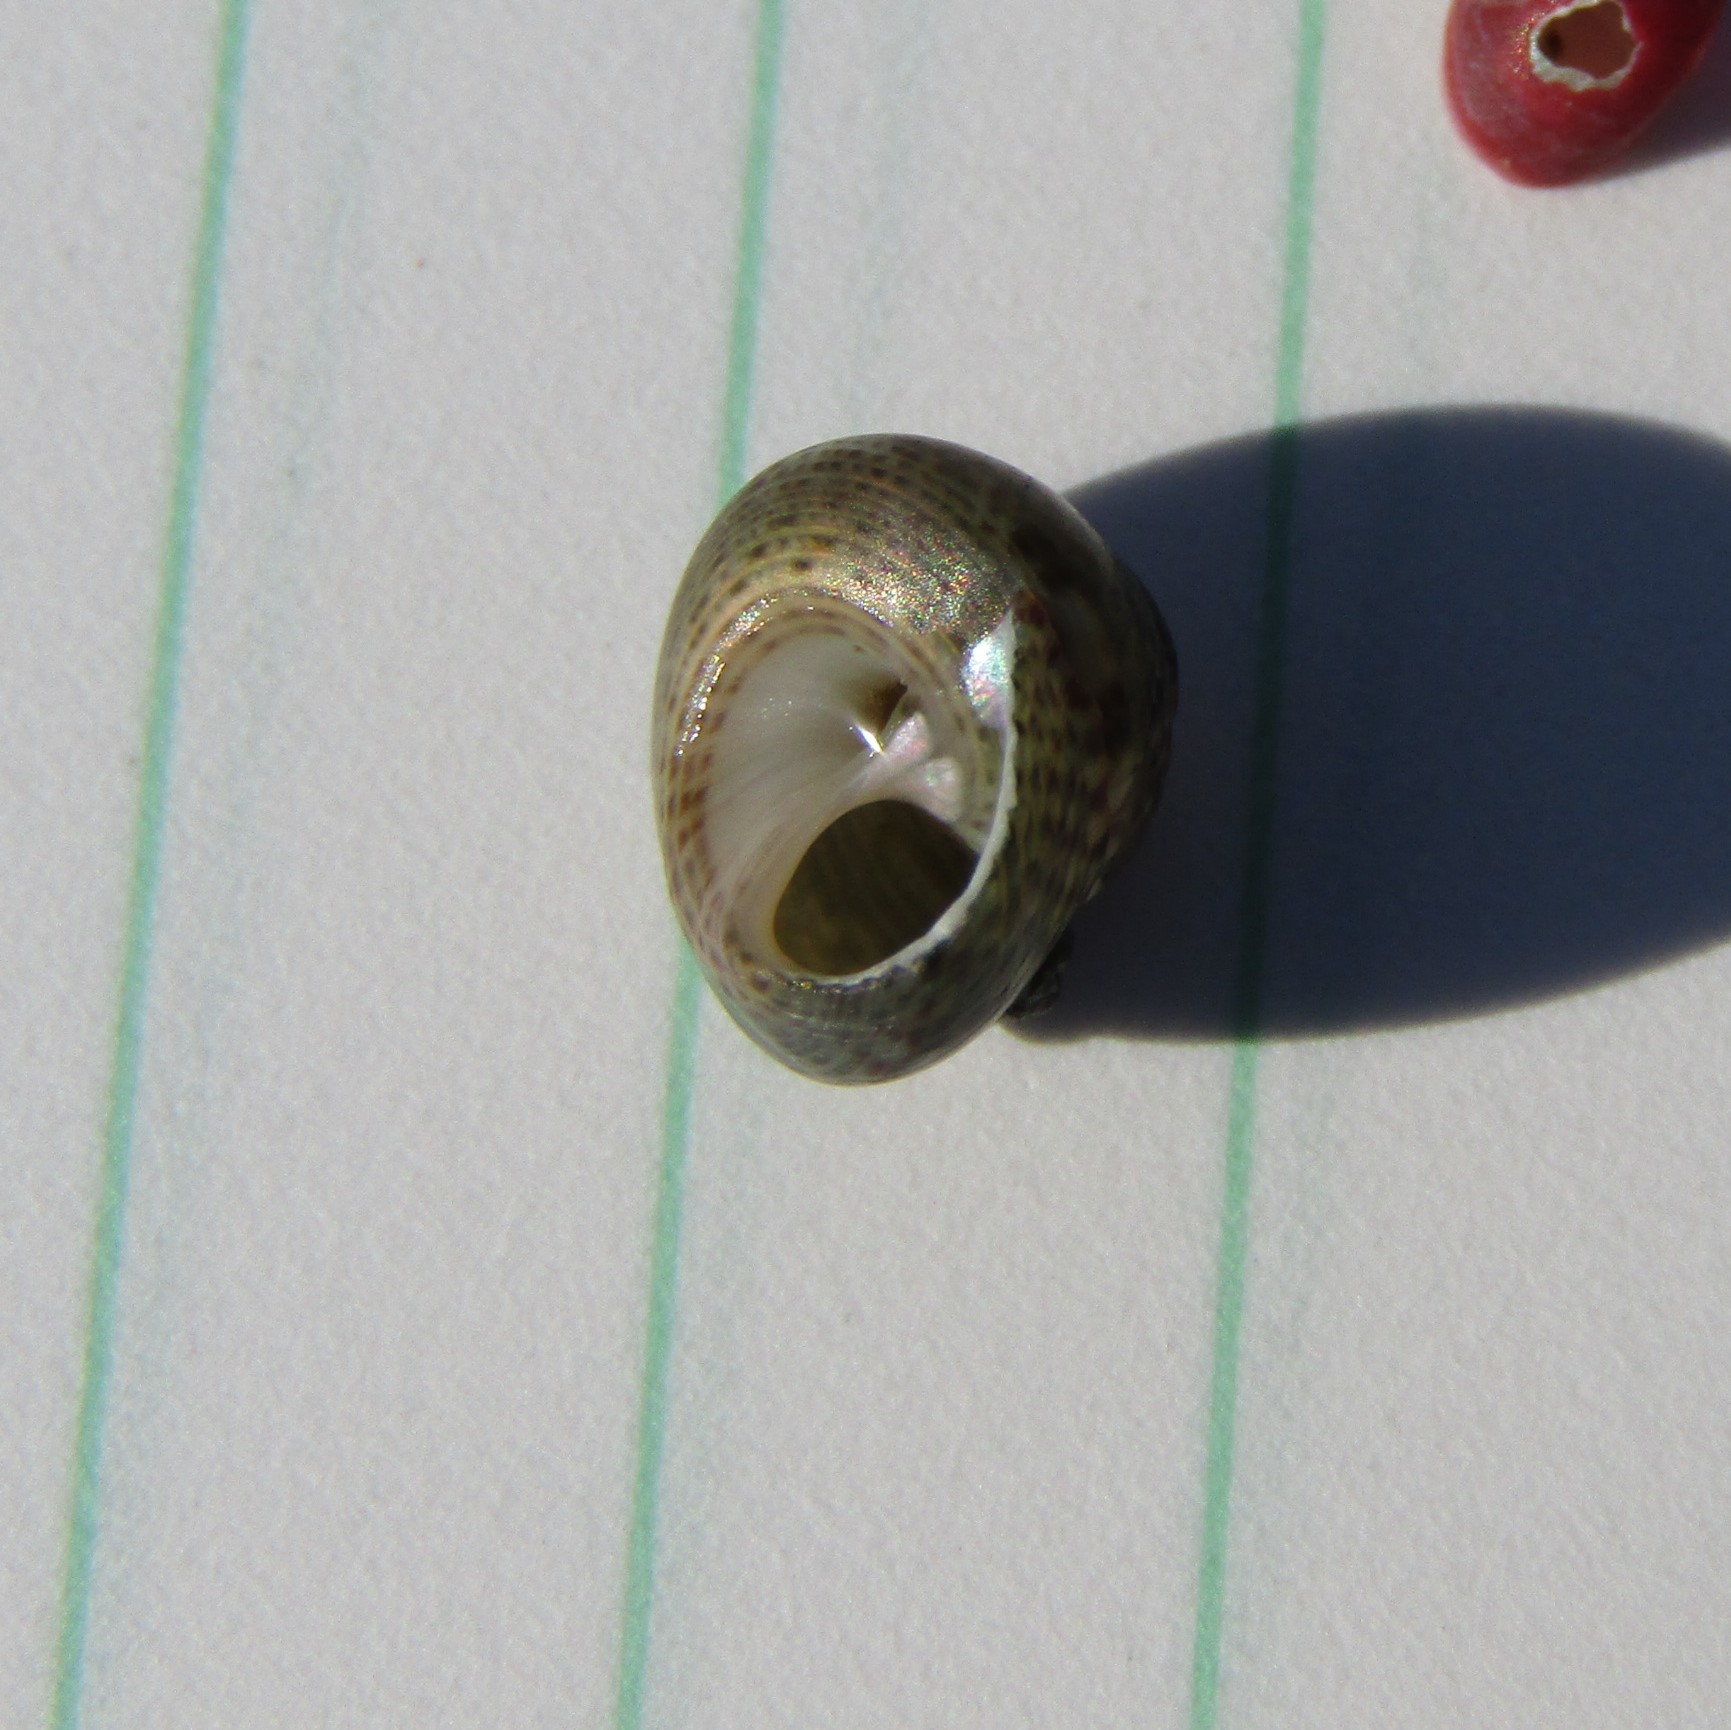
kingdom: Animalia
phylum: Mollusca
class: Gastropoda
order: Trochida
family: Trochidae
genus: Micrelenchus
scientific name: Micrelenchus tessellatus
